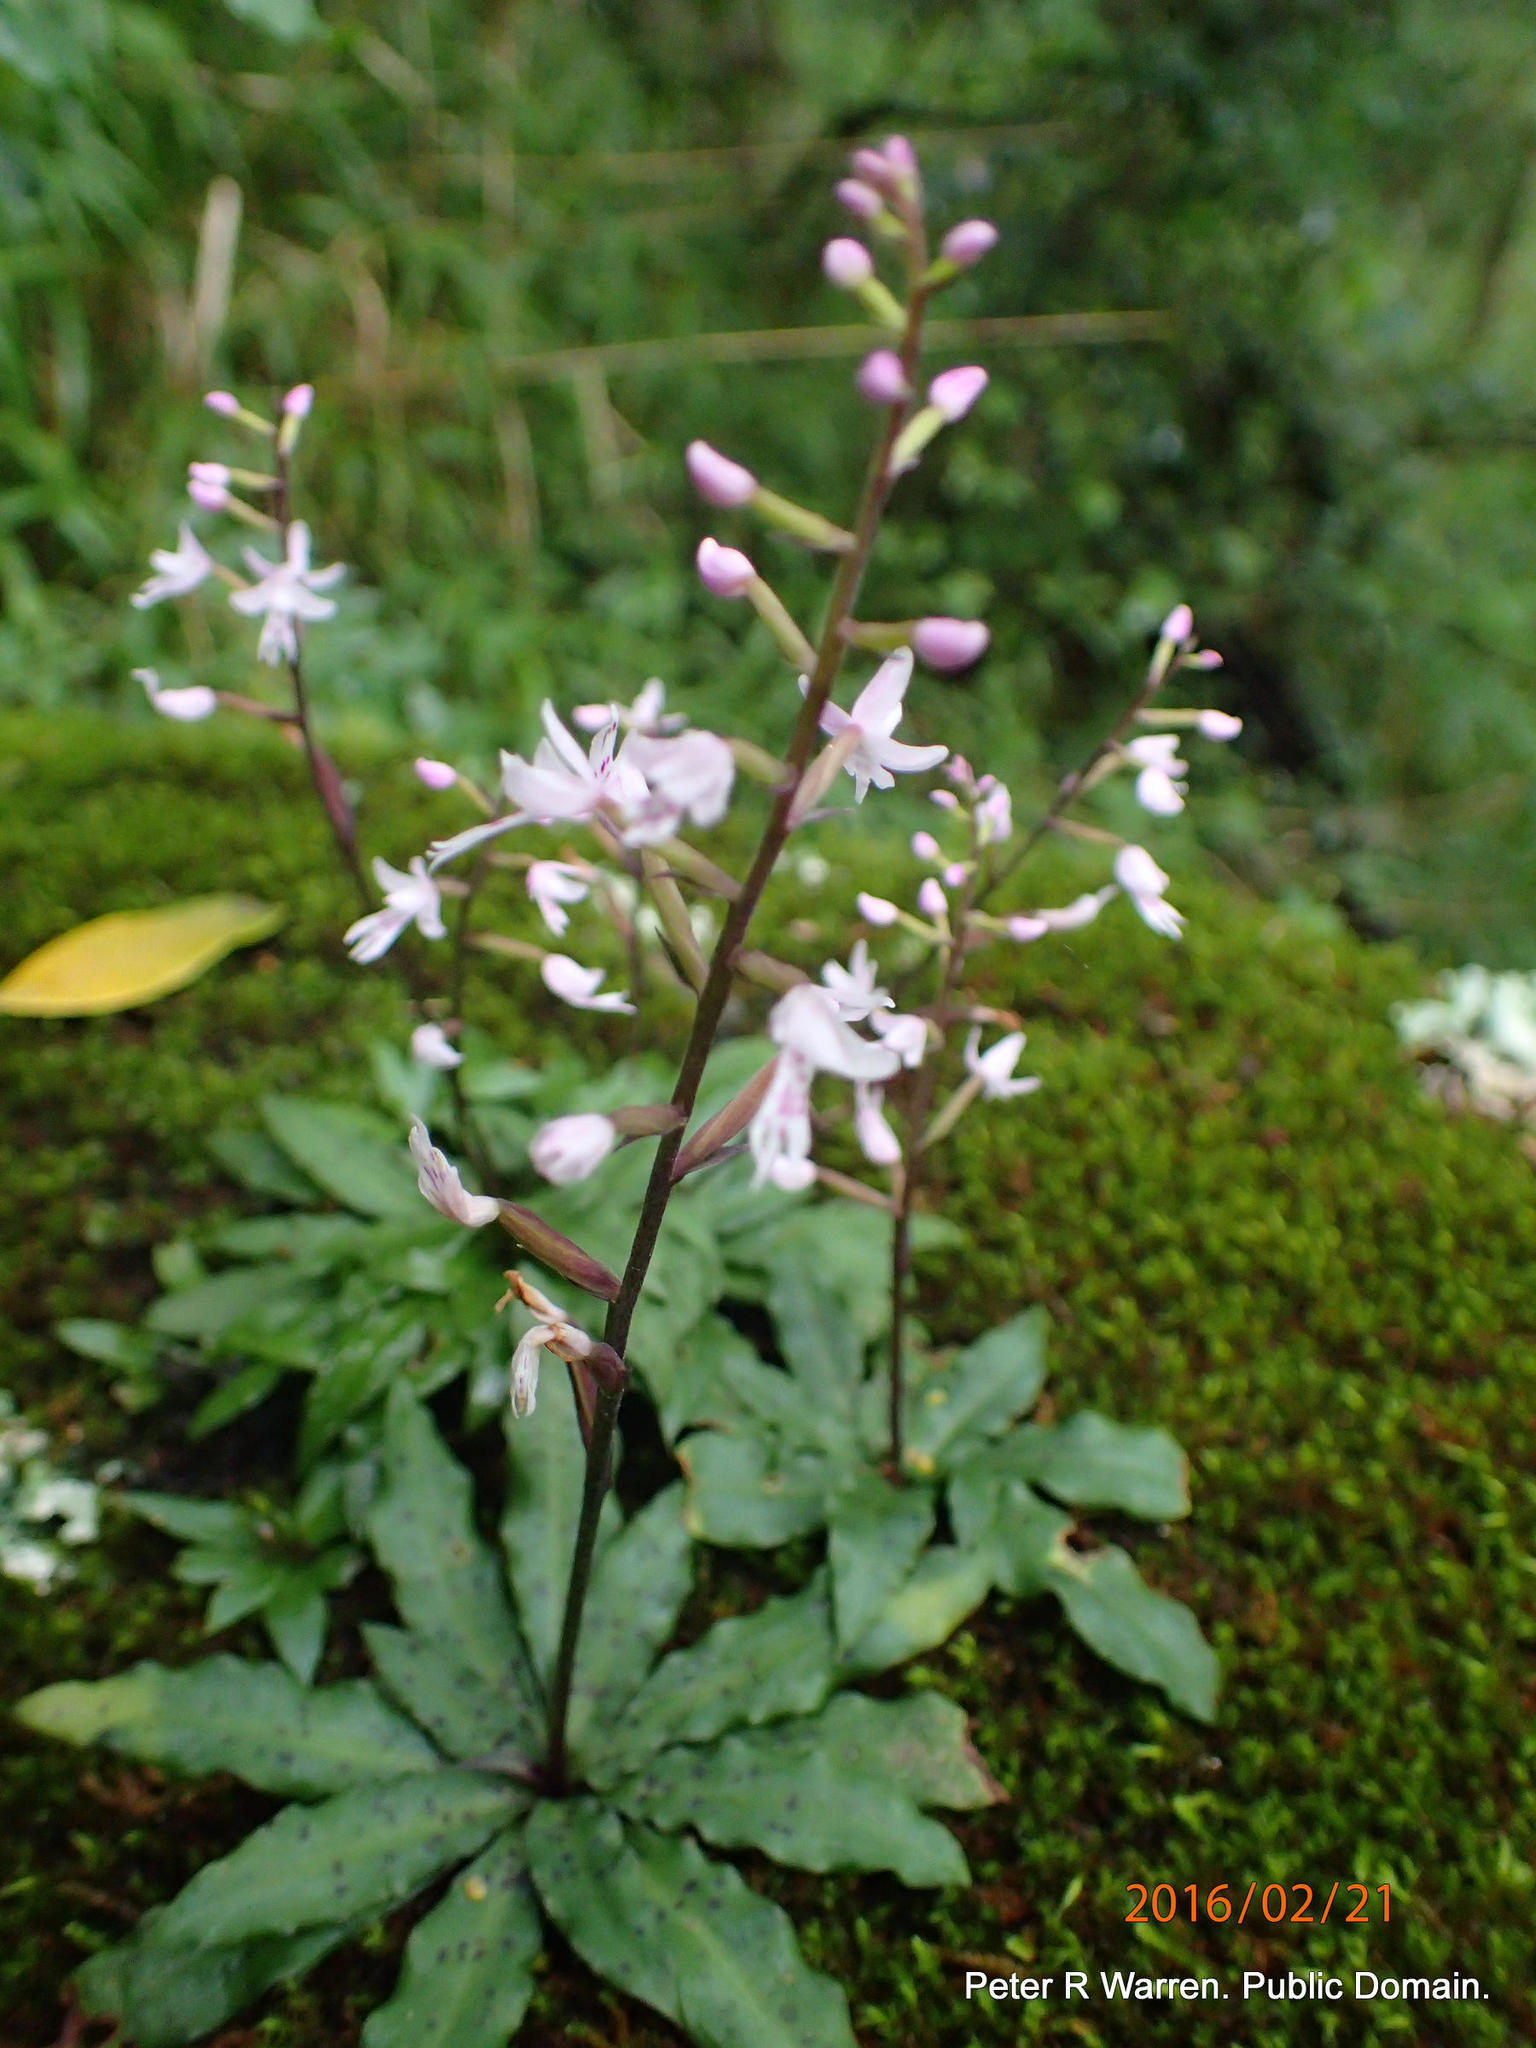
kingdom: Plantae
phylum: Tracheophyta
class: Liliopsida
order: Asparagales
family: Orchidaceae
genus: Stenoglottis
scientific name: Stenoglottis fimbriata
